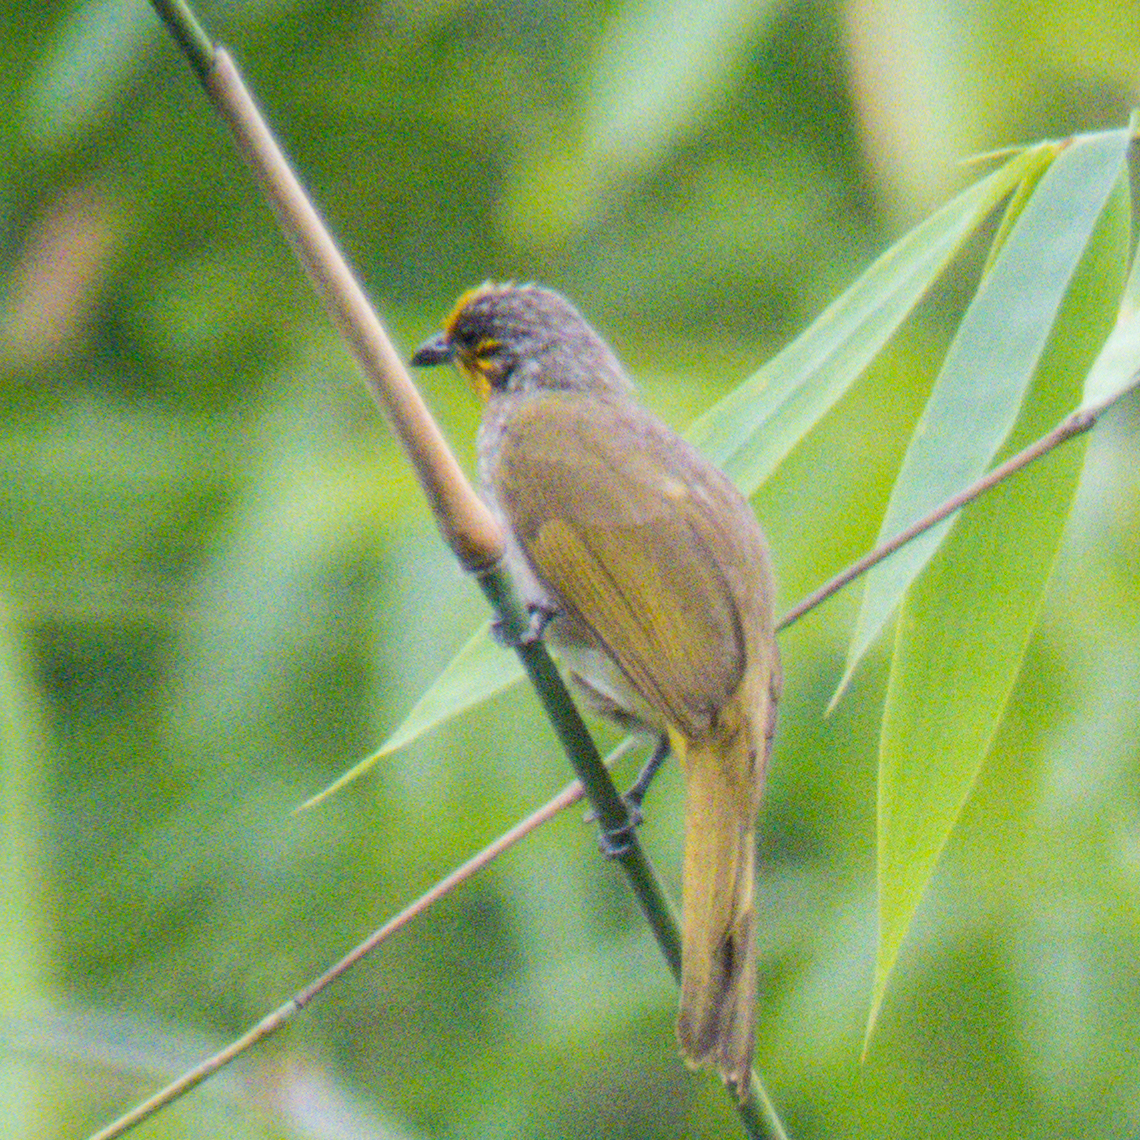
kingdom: Animalia
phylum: Chordata
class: Aves
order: Passeriformes
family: Pycnonotidae
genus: Pycnonotus
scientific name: Pycnonotus finlaysoni
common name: Stripe-throated bulbul
